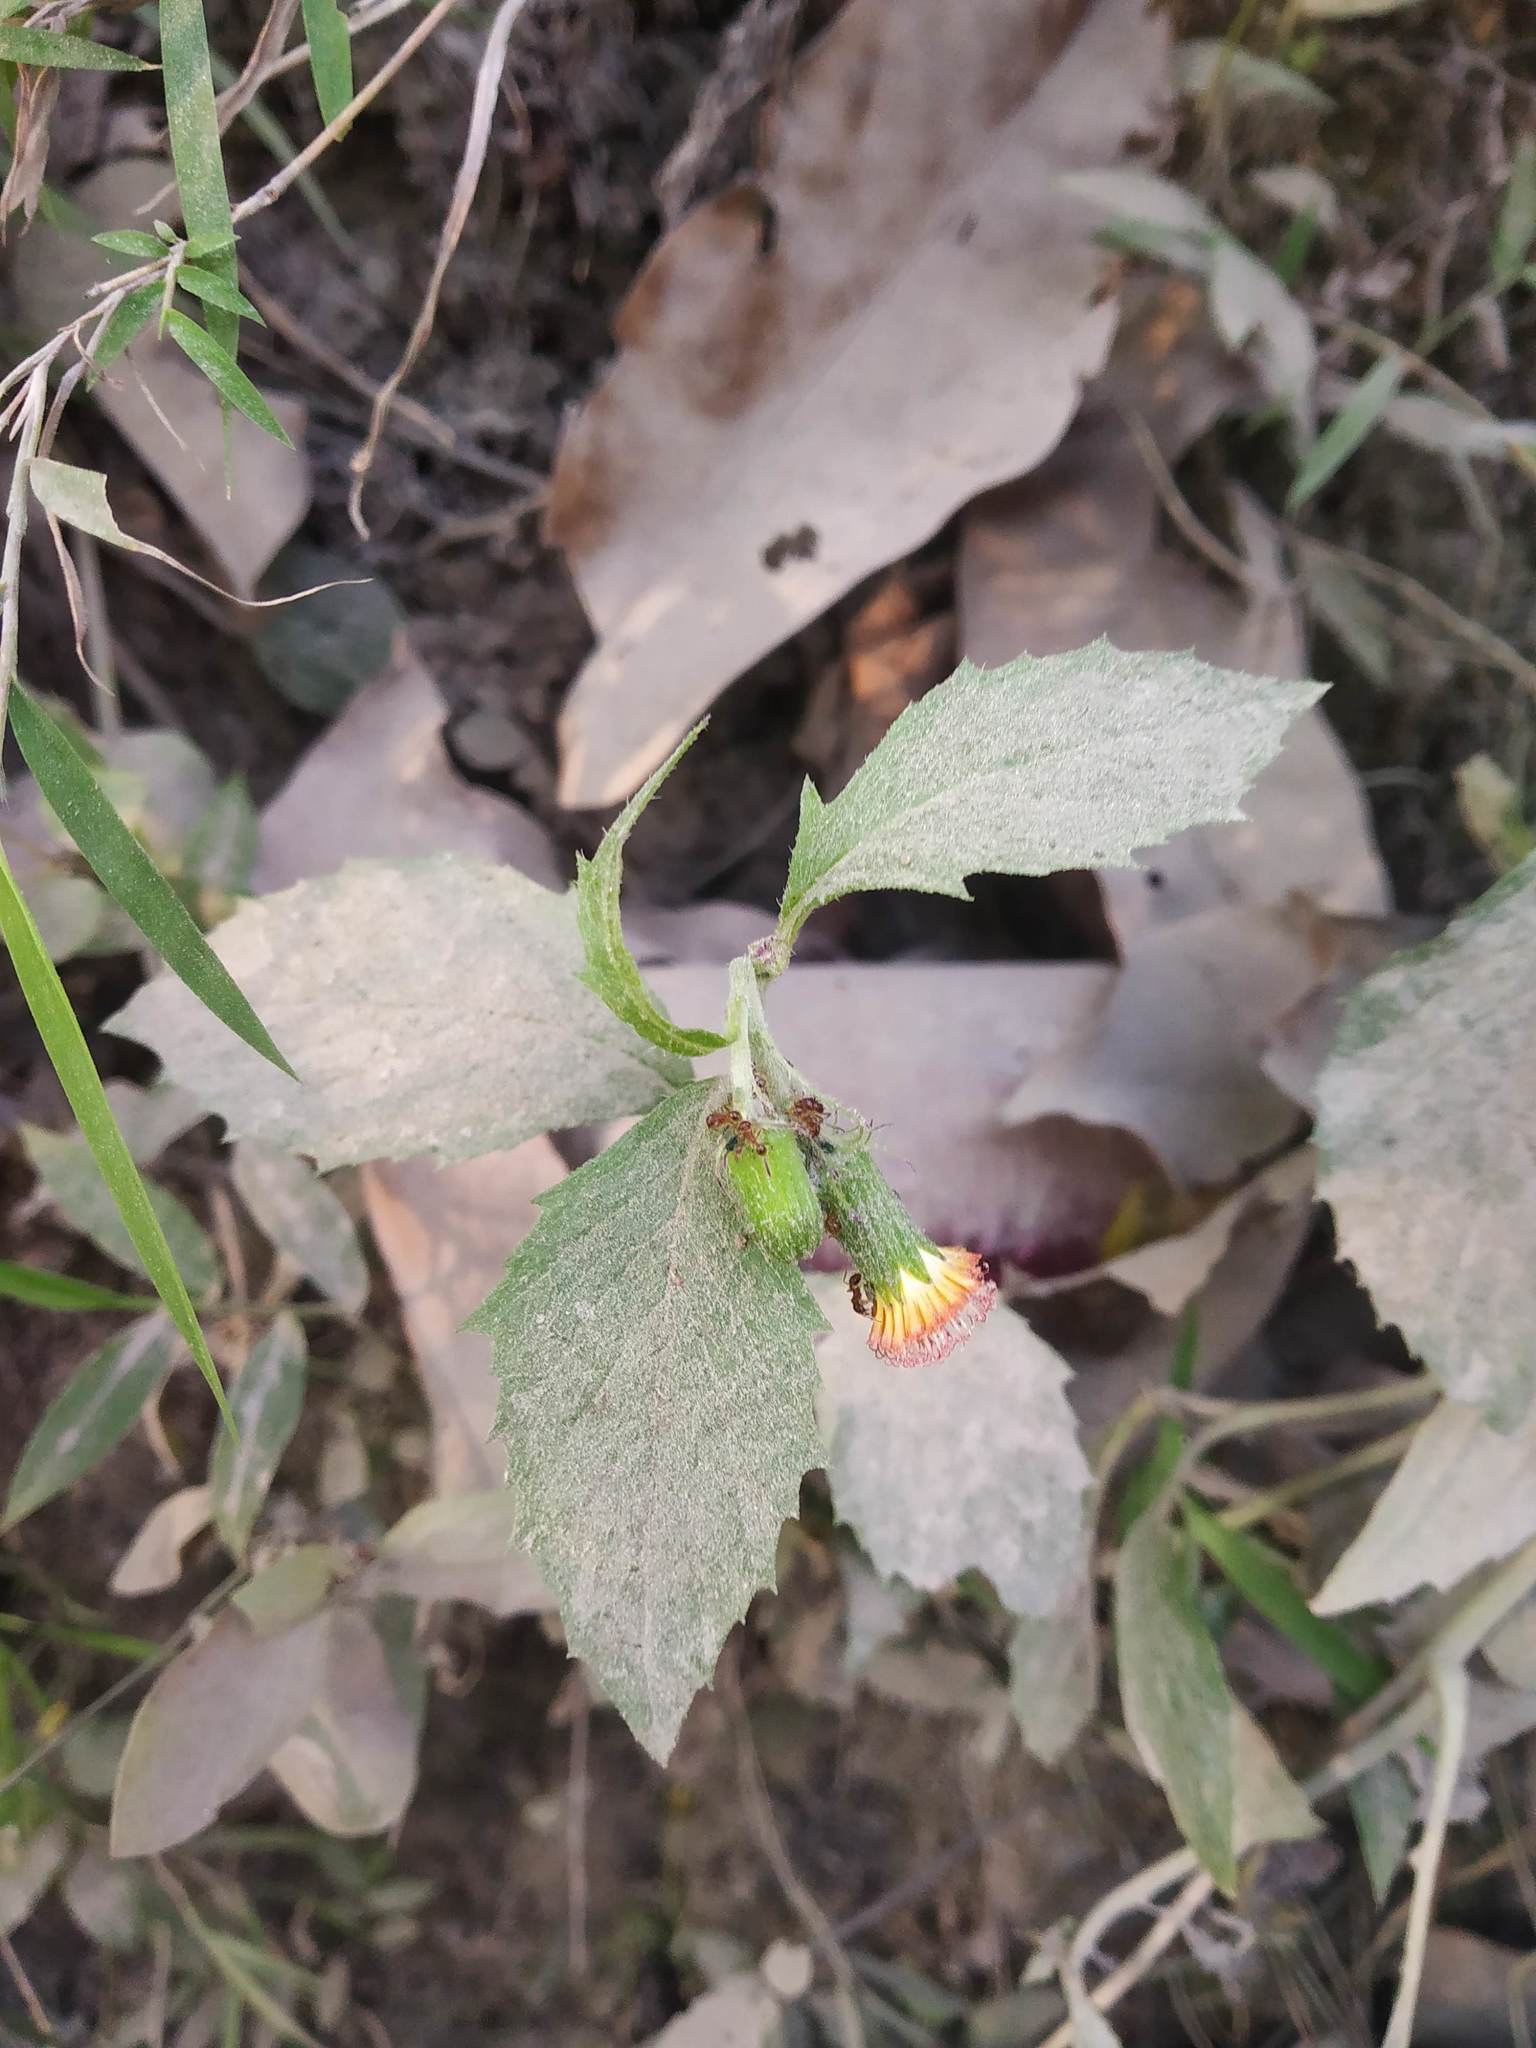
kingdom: Plantae
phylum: Tracheophyta
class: Magnoliopsida
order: Asterales
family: Asteraceae
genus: Crassocephalum
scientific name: Crassocephalum crepidioides
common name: Redflower ragleaf
